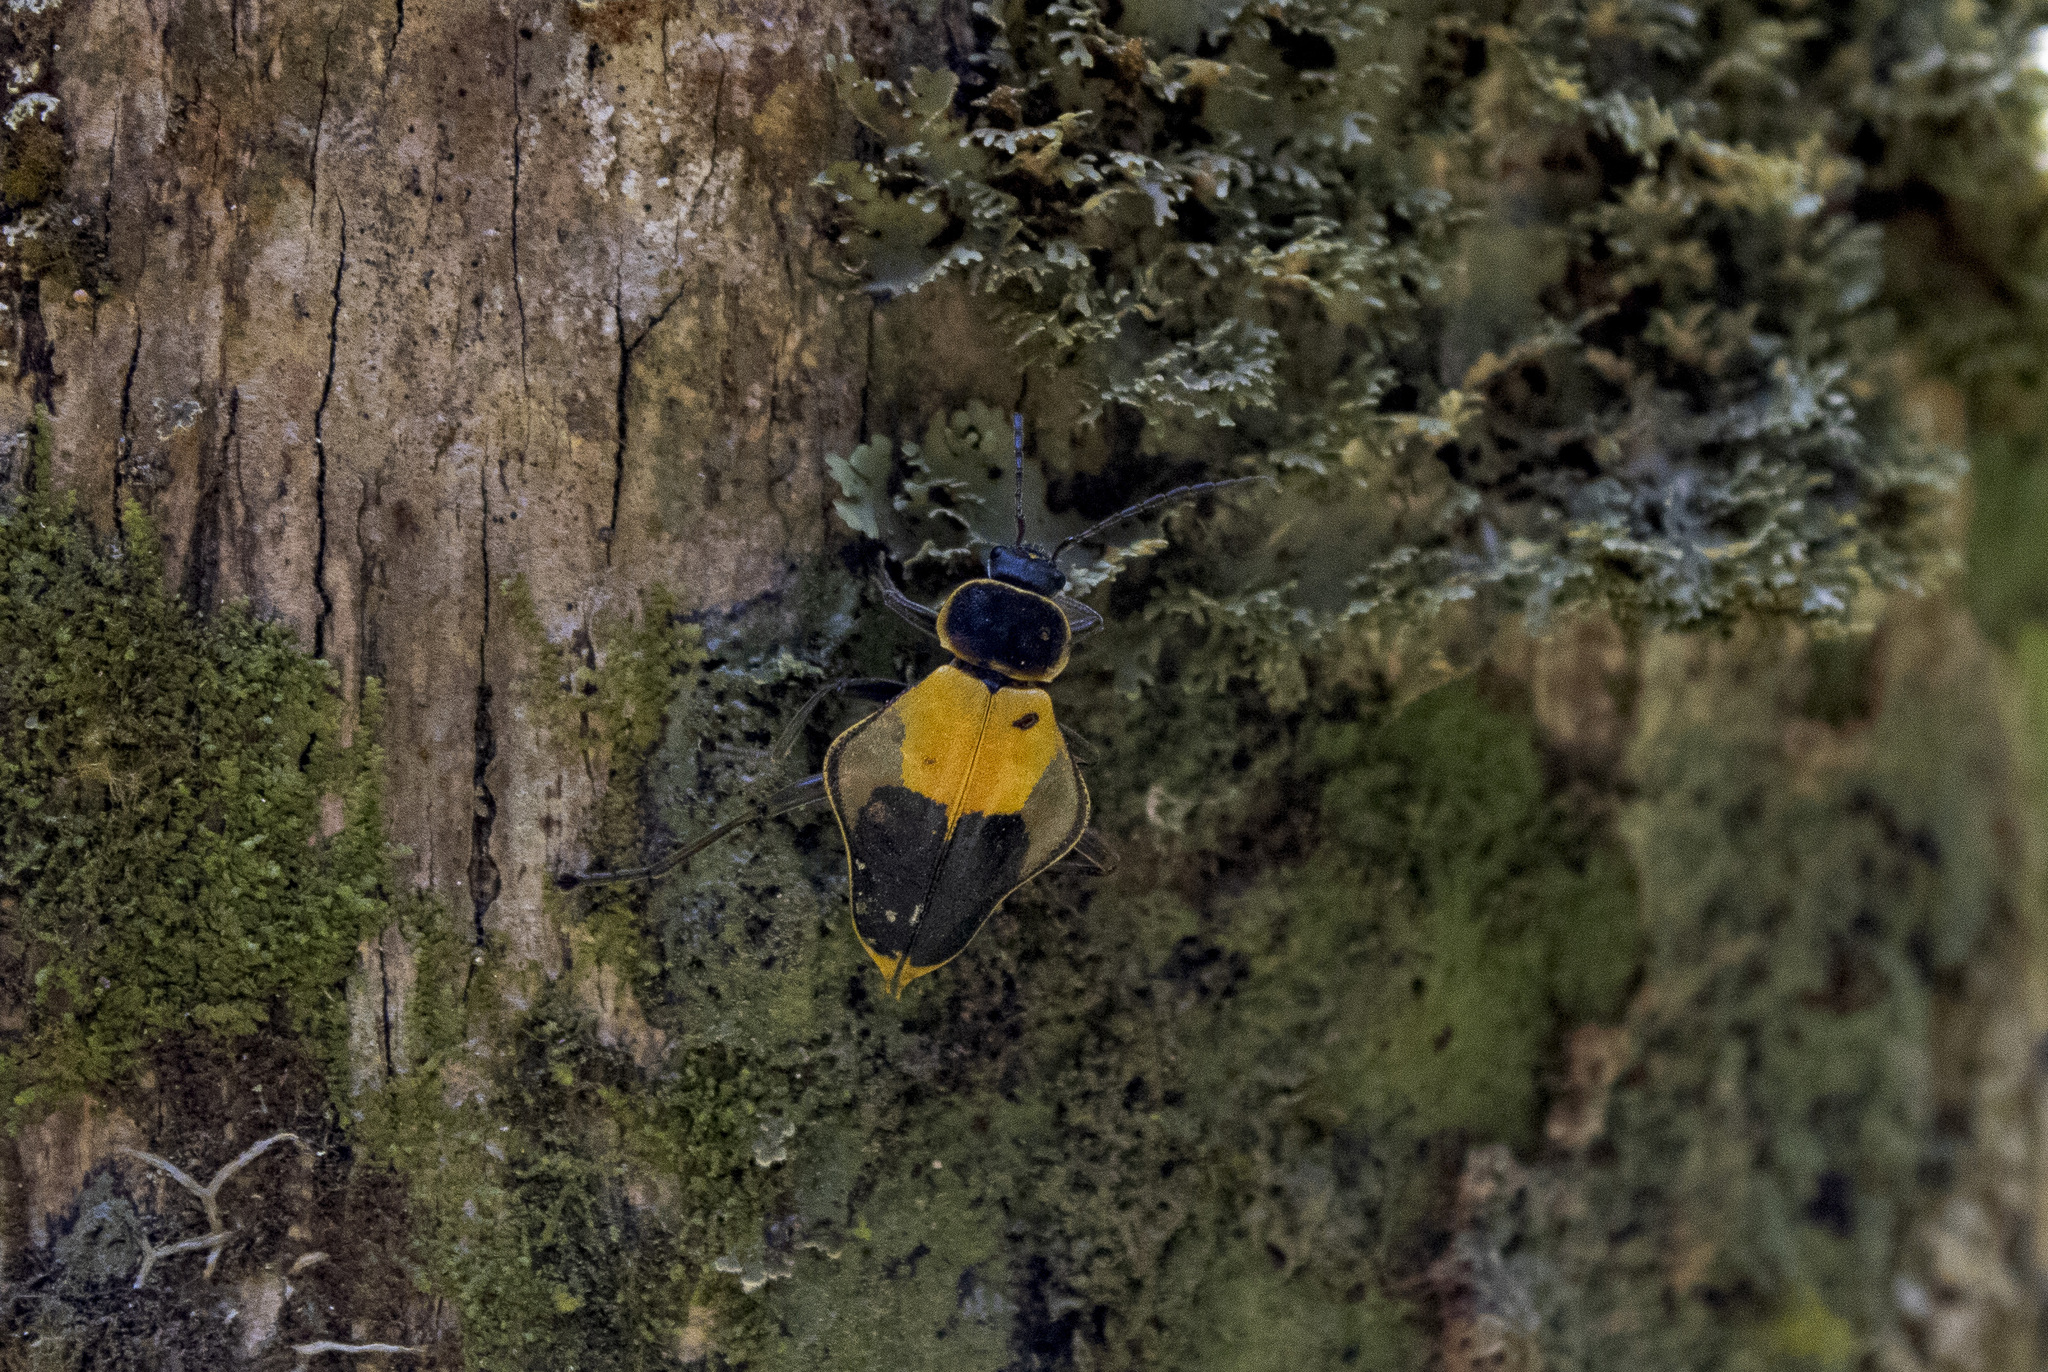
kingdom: Animalia
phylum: Arthropoda
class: Insecta
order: Coleoptera
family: Cantharidae
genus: Chauliognathus
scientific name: Chauliognathus
